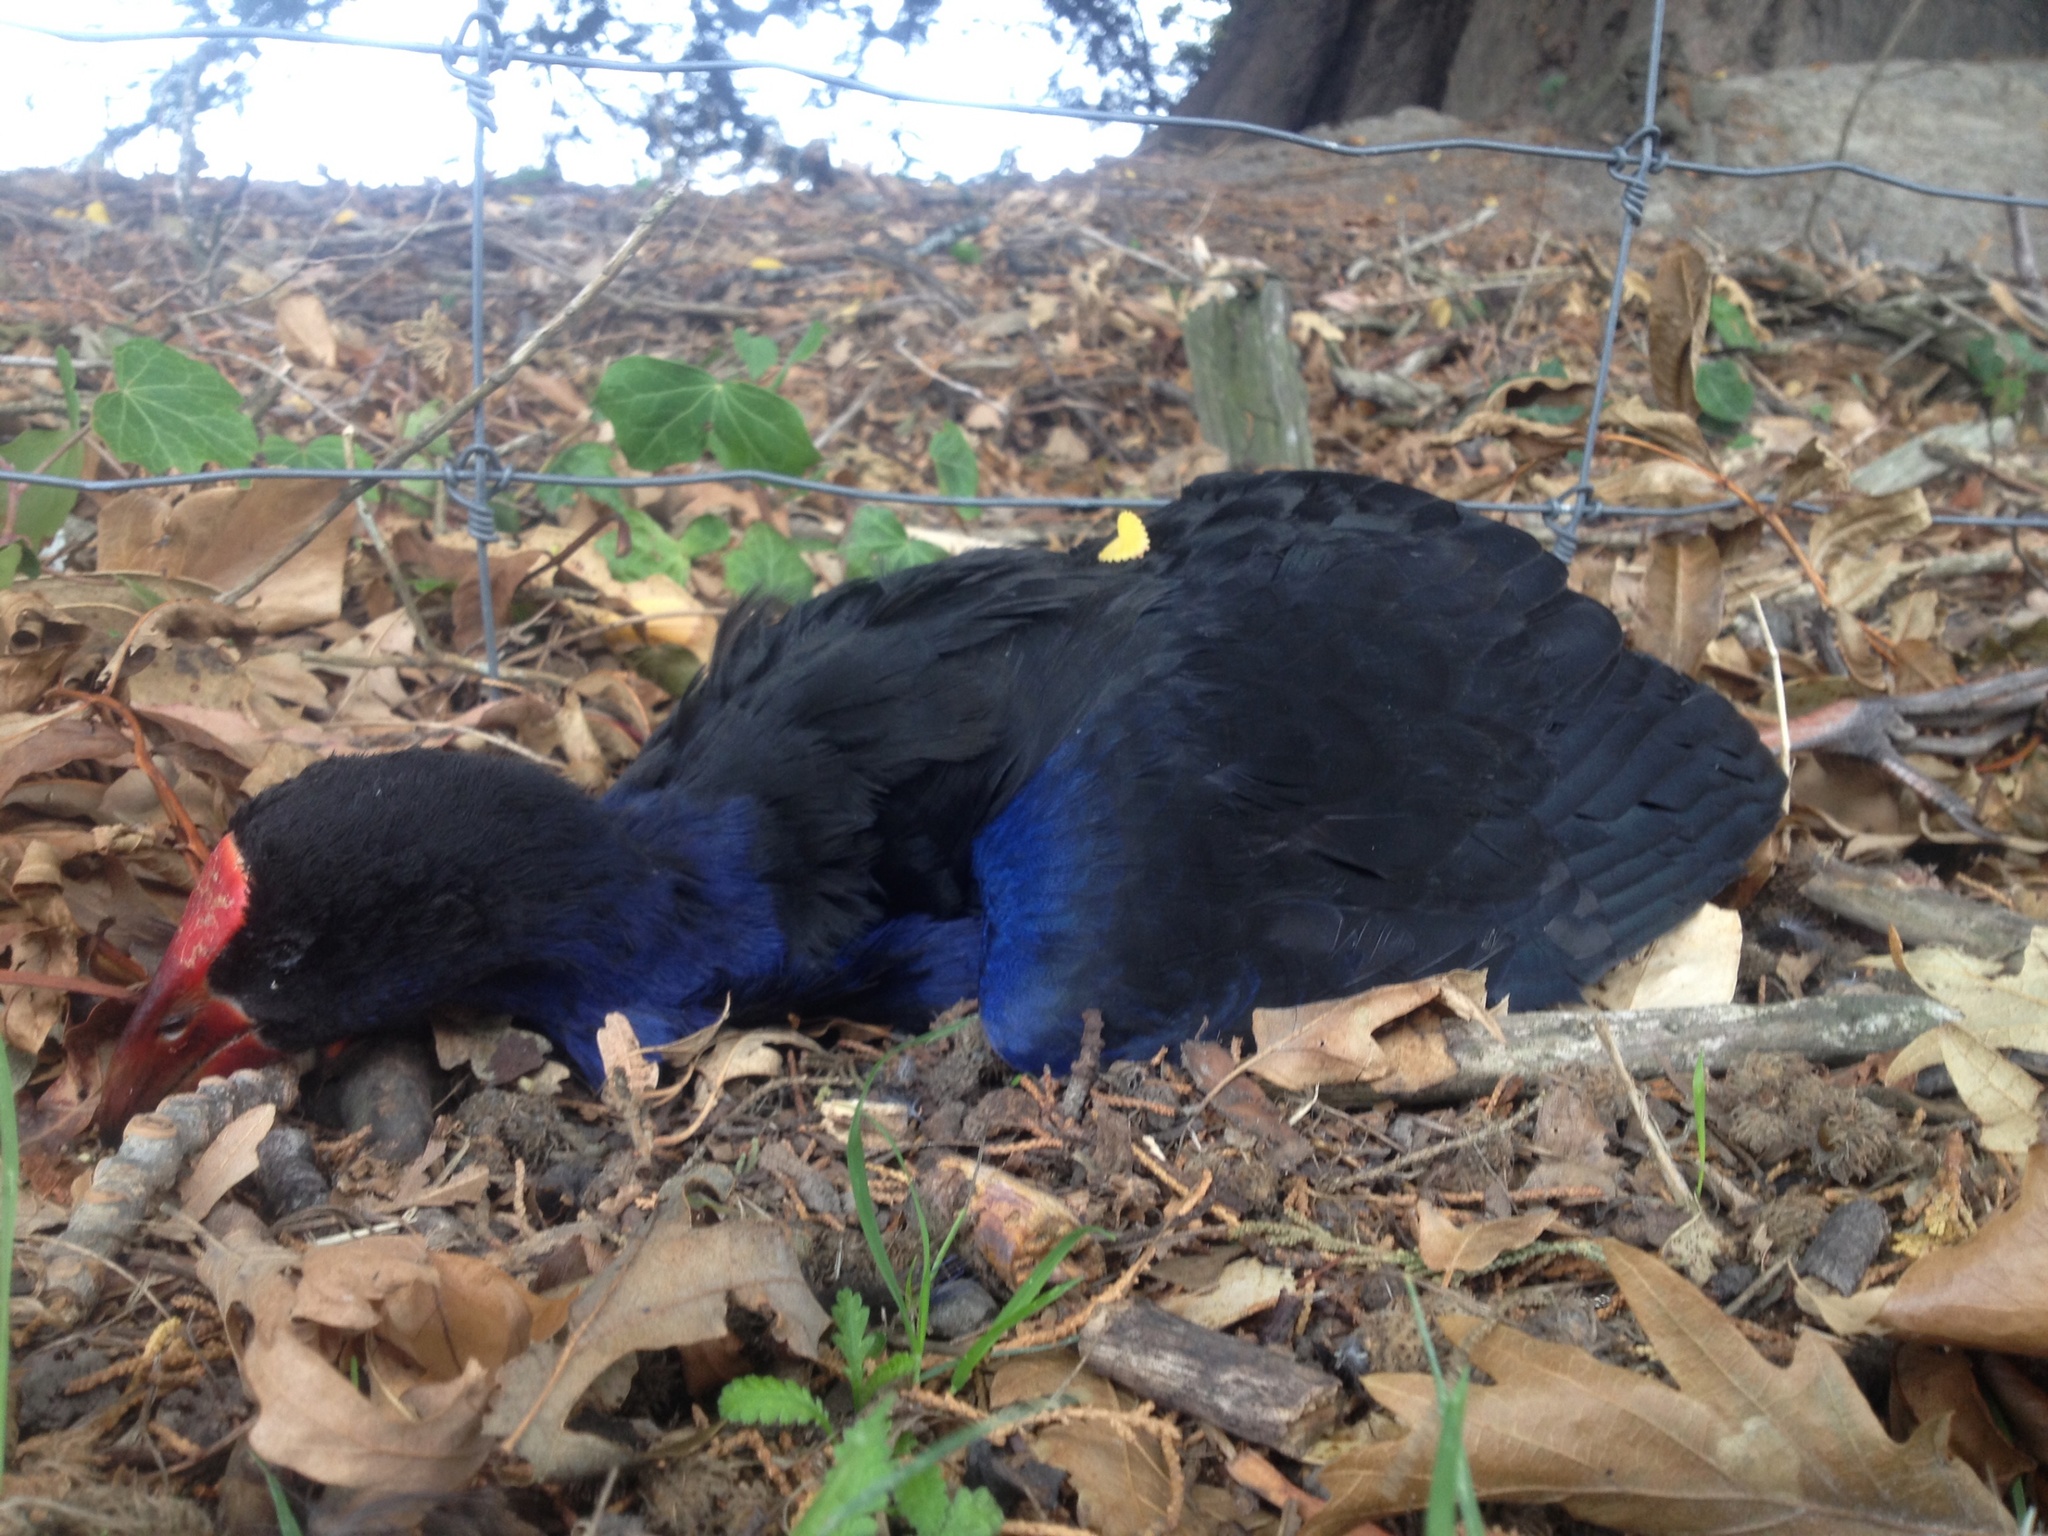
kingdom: Animalia
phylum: Chordata
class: Aves
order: Gruiformes
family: Rallidae
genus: Porphyrio
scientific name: Porphyrio melanotus
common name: Australasian swamphen
